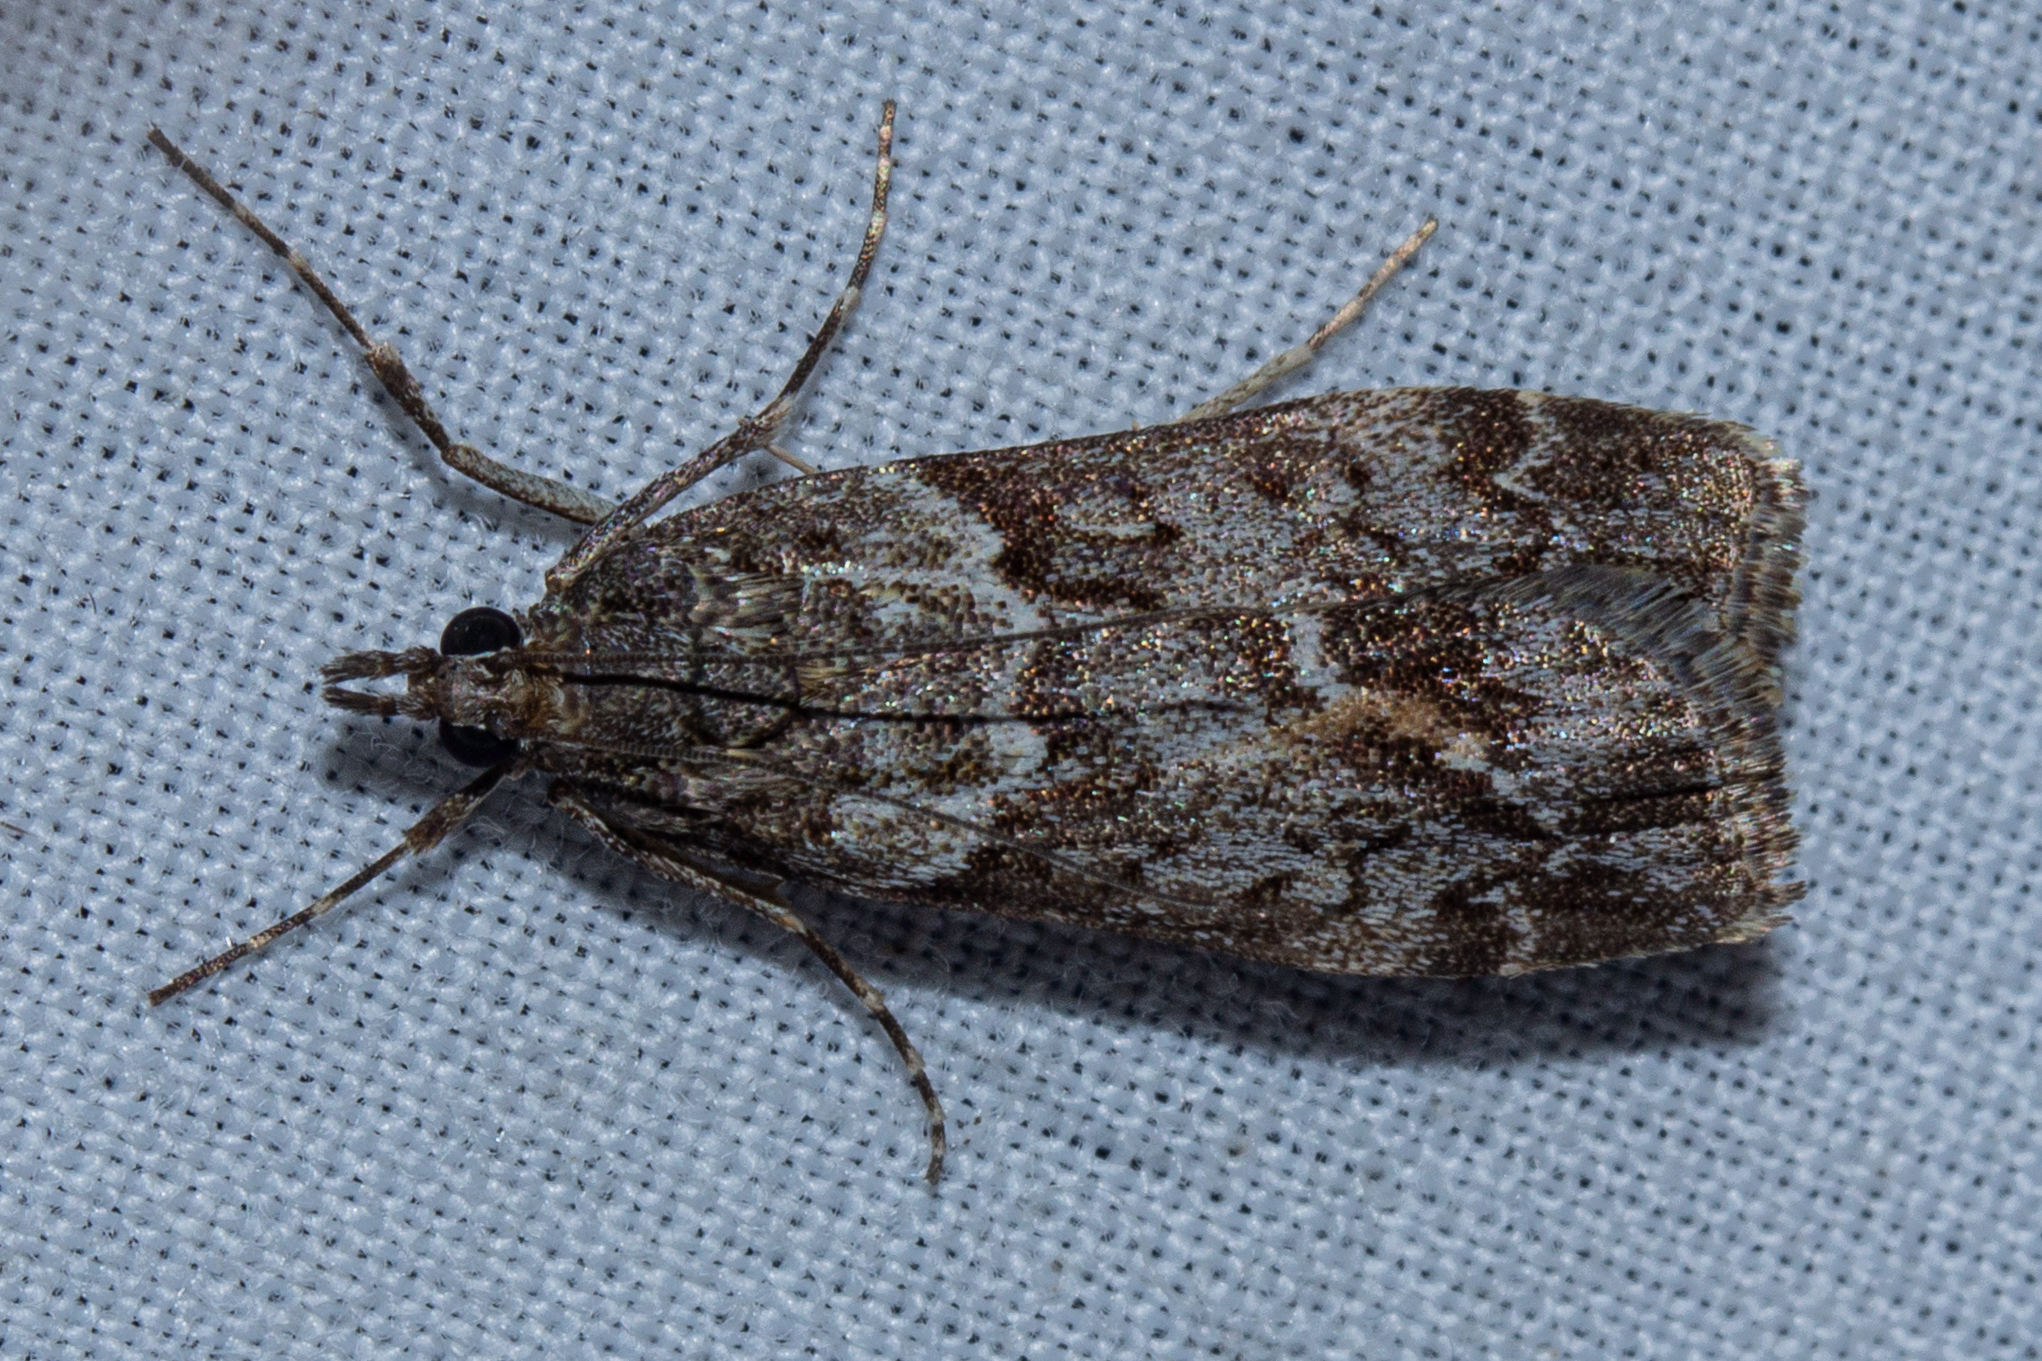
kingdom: Animalia
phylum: Arthropoda
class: Insecta
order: Lepidoptera
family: Crambidae
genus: Eudonia
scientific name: Eudonia submarginalis
